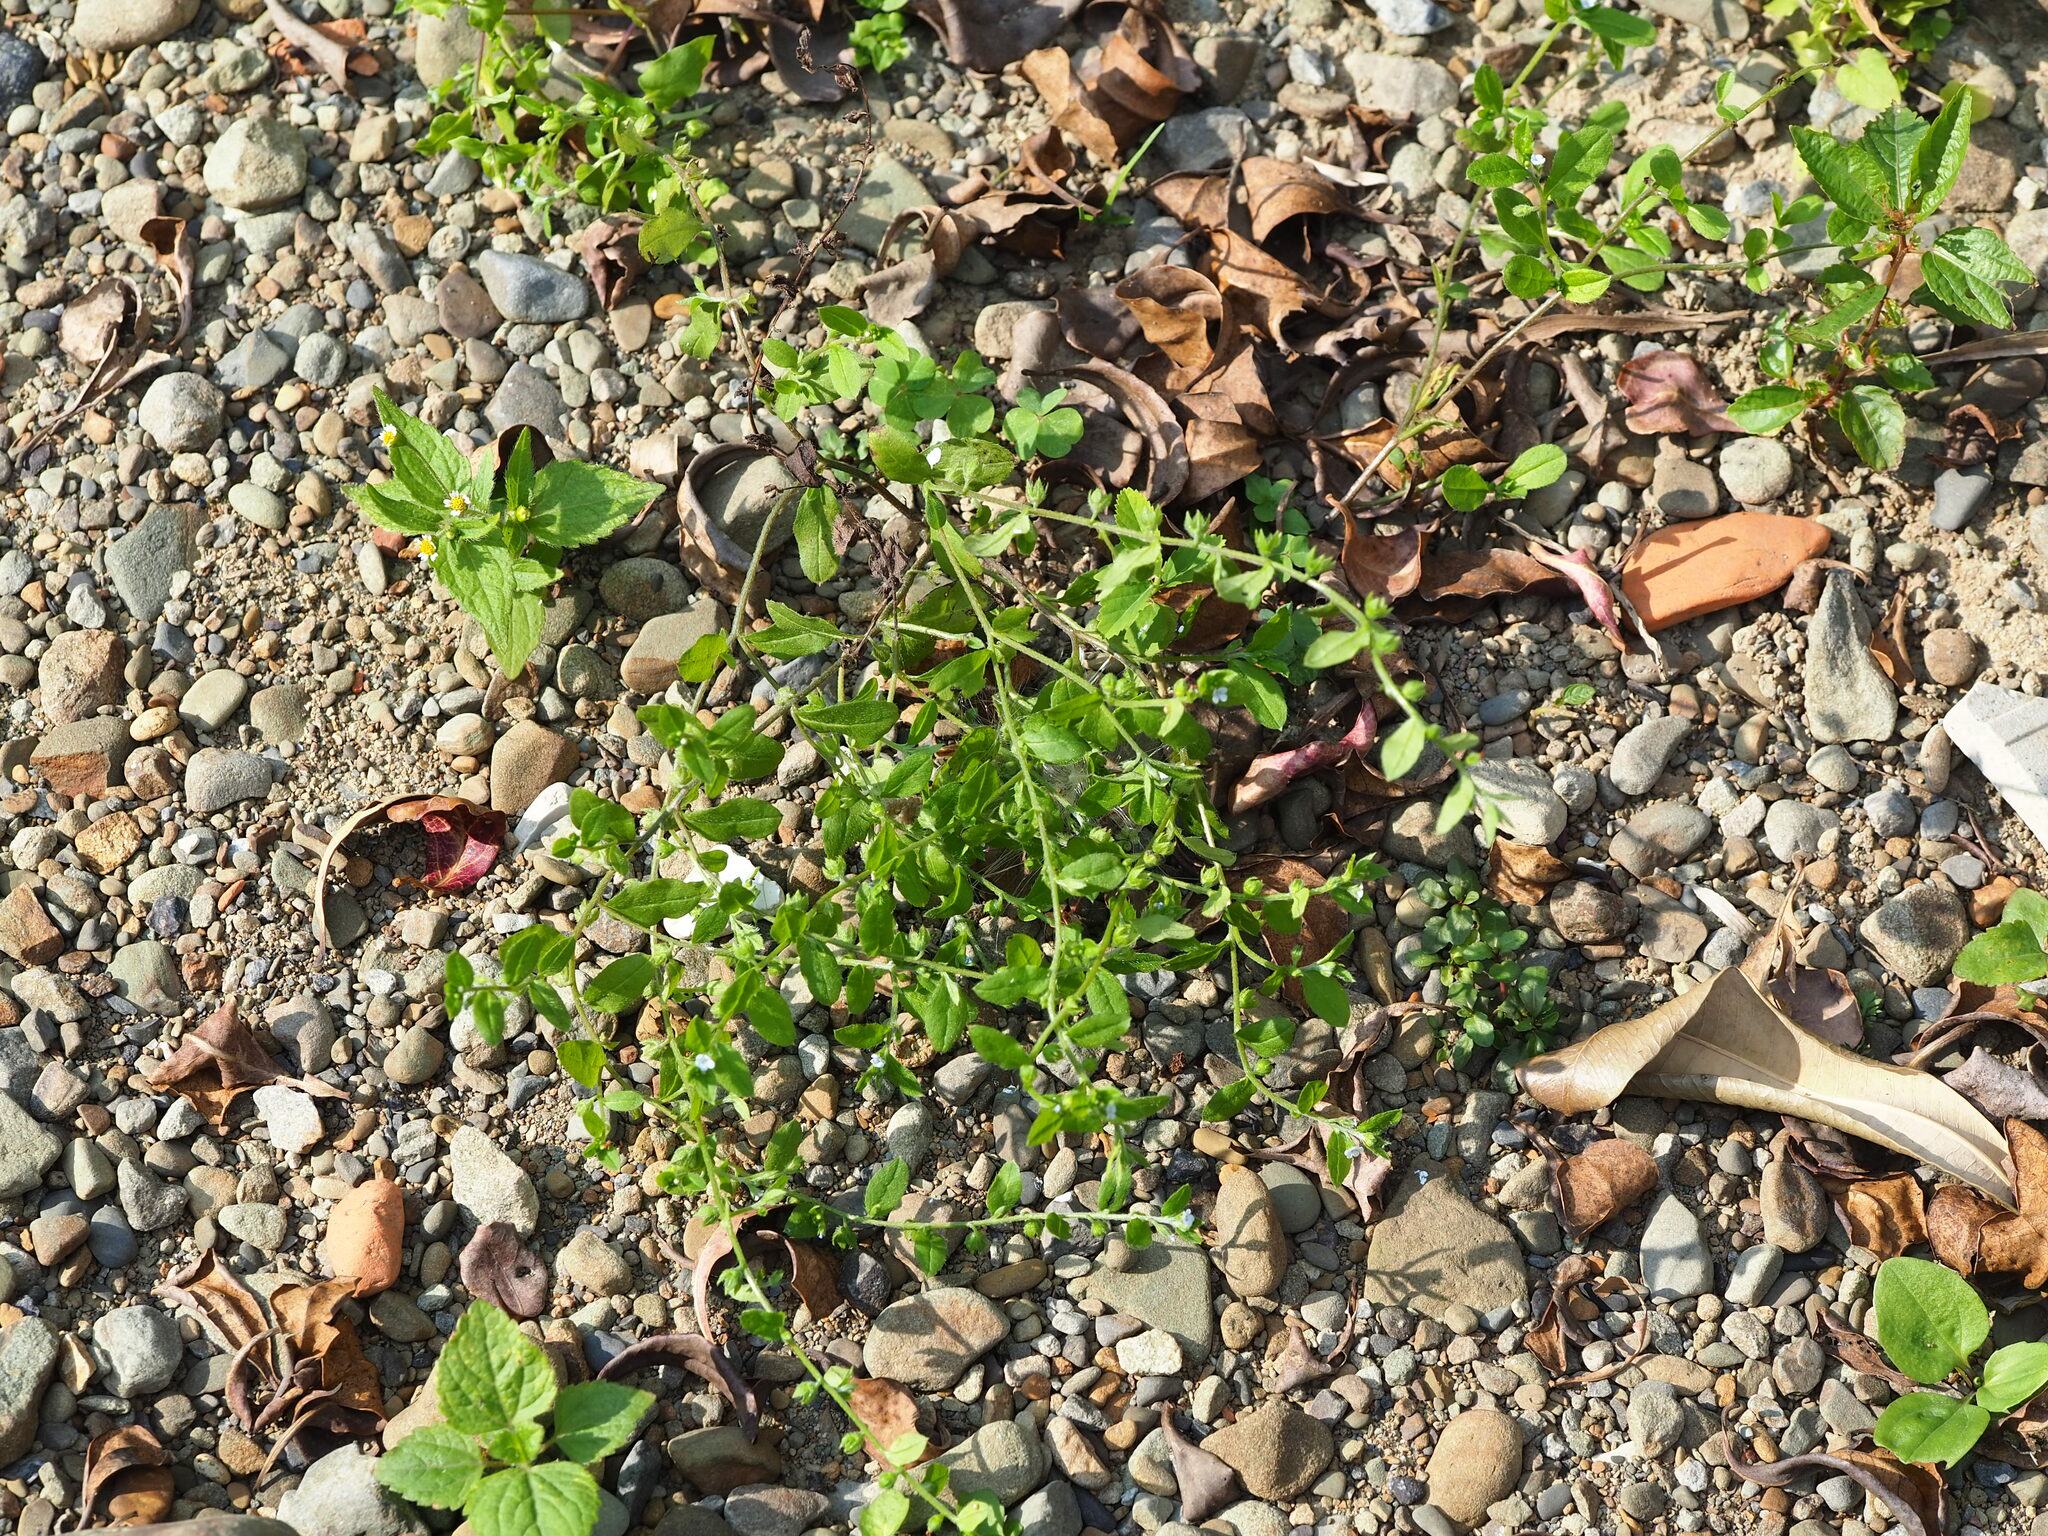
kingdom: Plantae
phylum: Tracheophyta
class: Magnoliopsida
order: Boraginales
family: Boraginaceae
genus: Bothriospermum
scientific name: Bothriospermum zeylanicum
